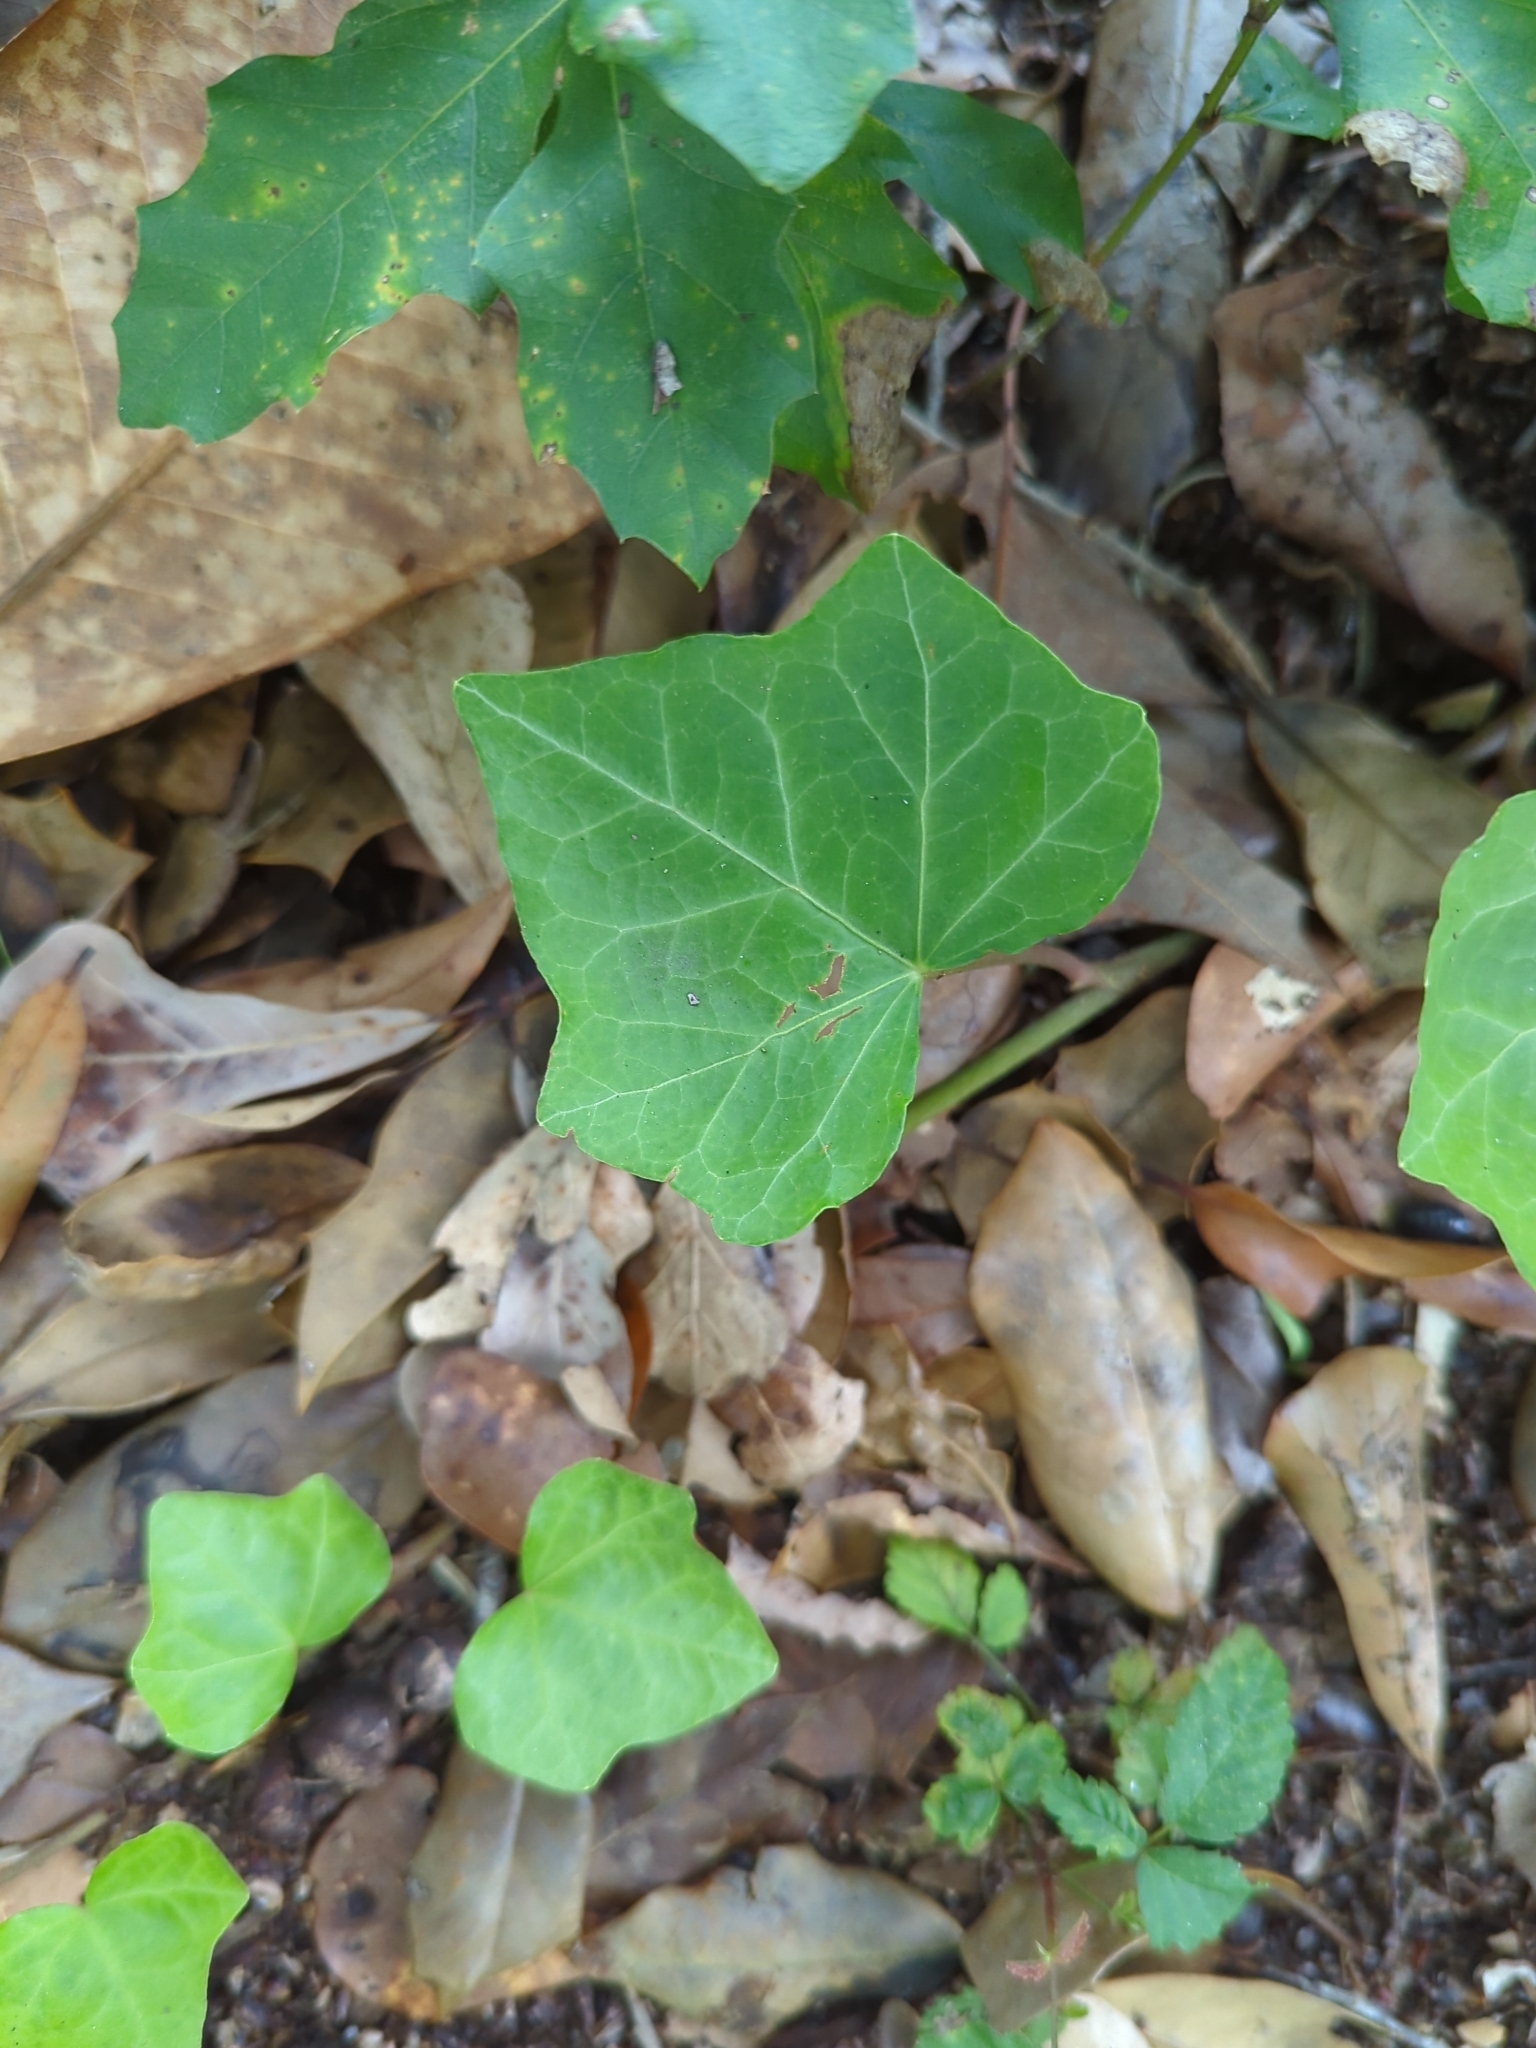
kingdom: Plantae
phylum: Tracheophyta
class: Magnoliopsida
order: Apiales
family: Araliaceae
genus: Hedera
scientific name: Hedera helix
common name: Ivy
